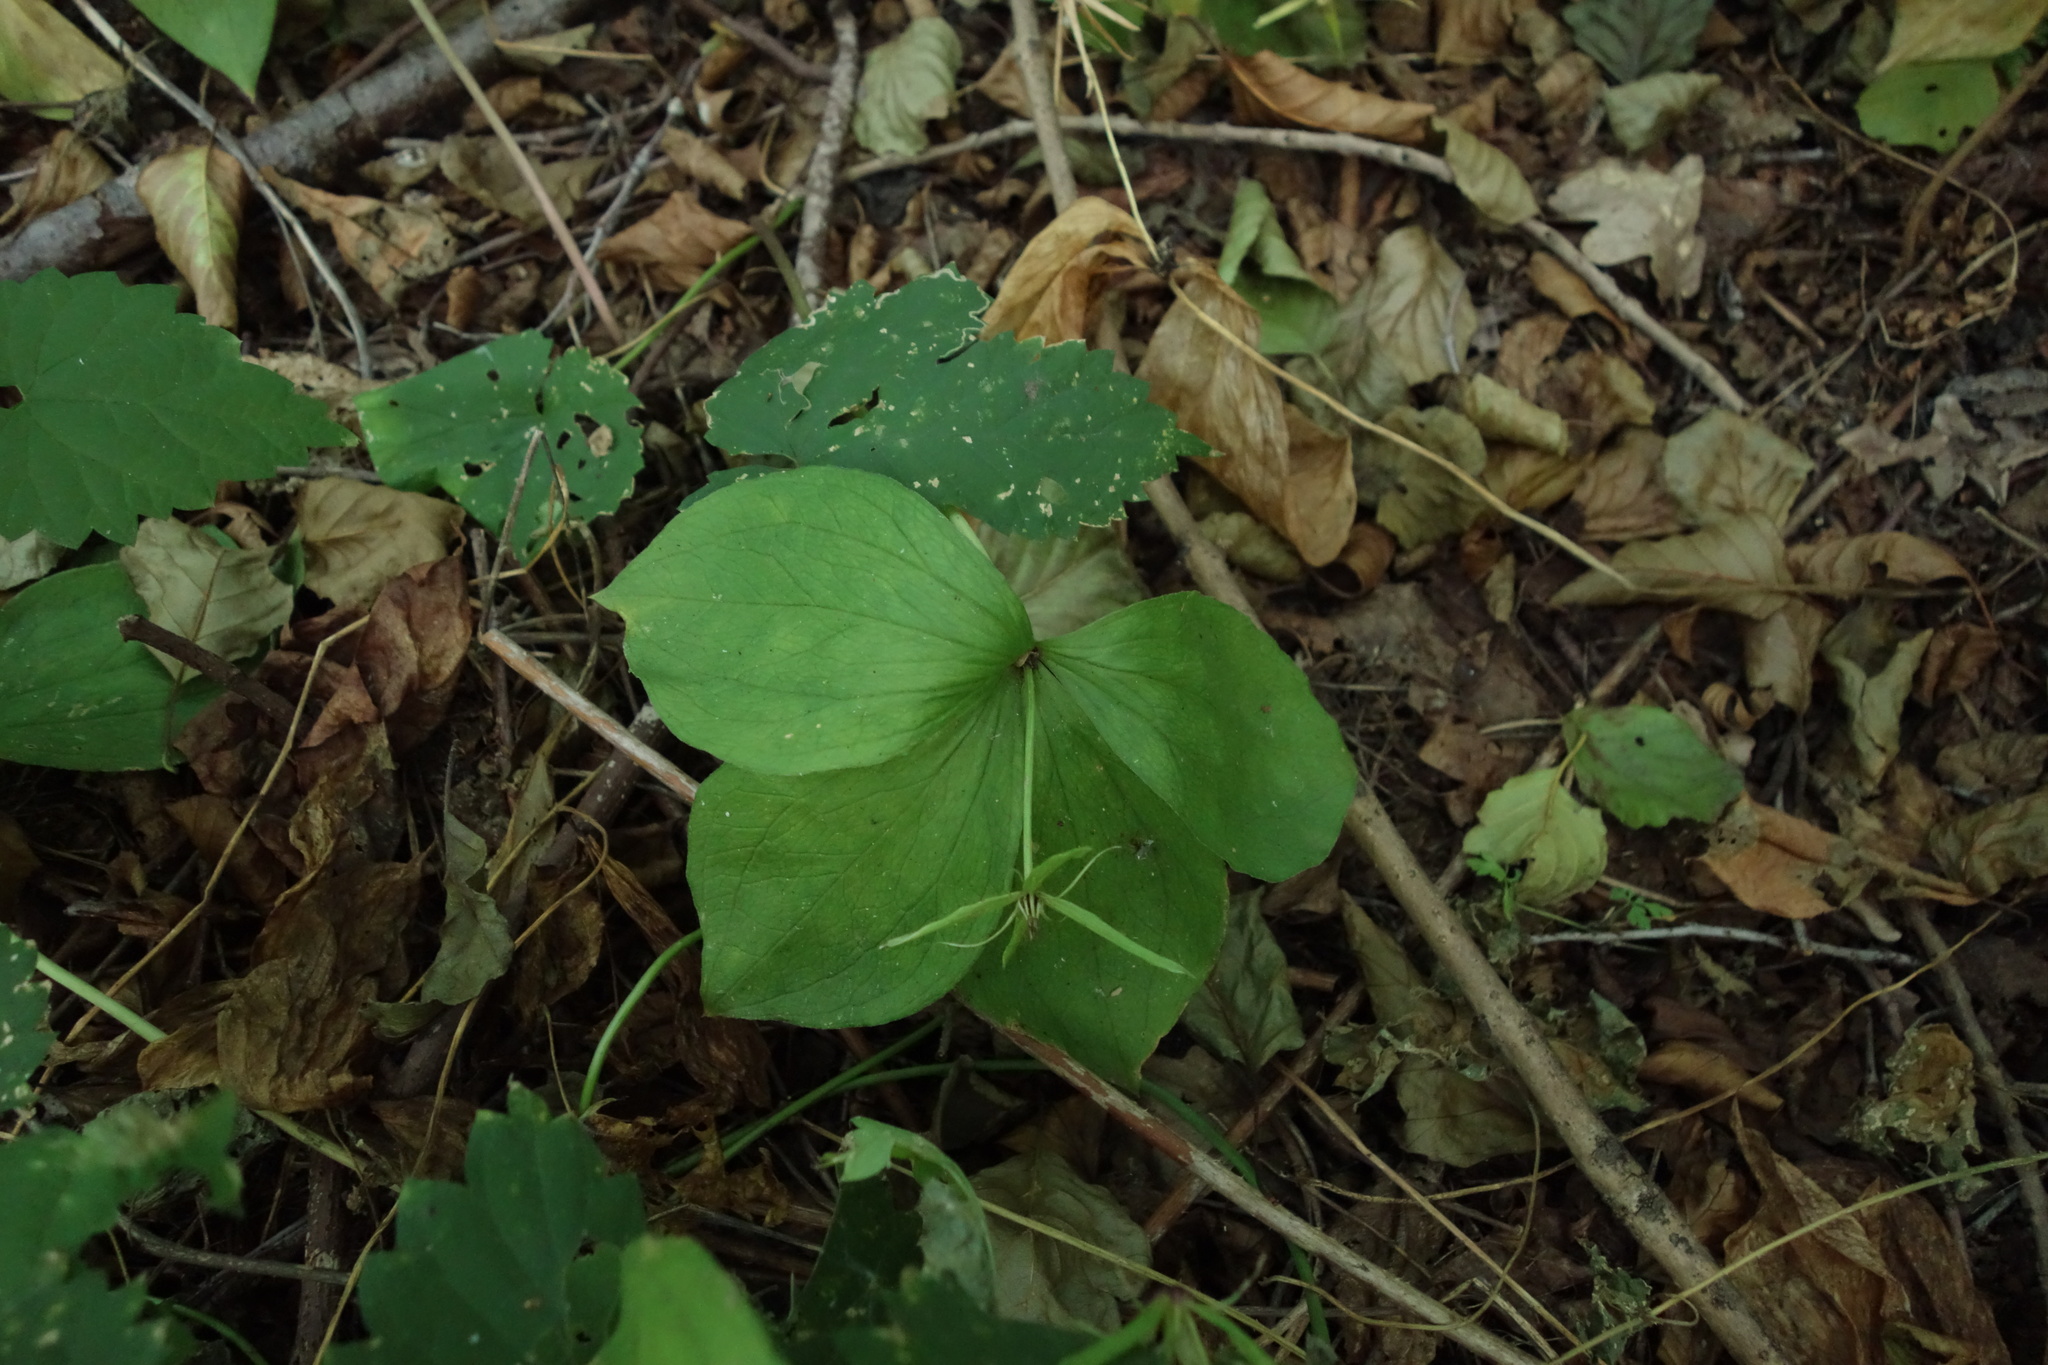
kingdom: Plantae
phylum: Tracheophyta
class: Liliopsida
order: Liliales
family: Melanthiaceae
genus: Paris
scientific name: Paris quadrifolia
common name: Herb-paris
